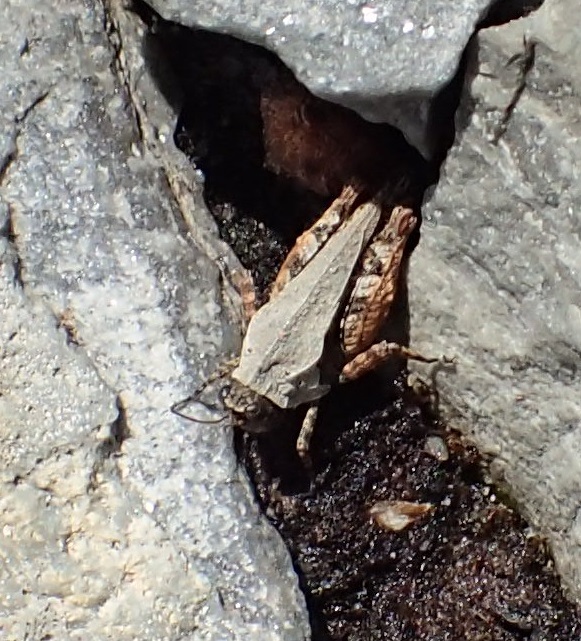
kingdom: Animalia
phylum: Arthropoda
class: Insecta
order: Orthoptera
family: Tetrigidae
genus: Paratettix
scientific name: Paratettix argillaceus
